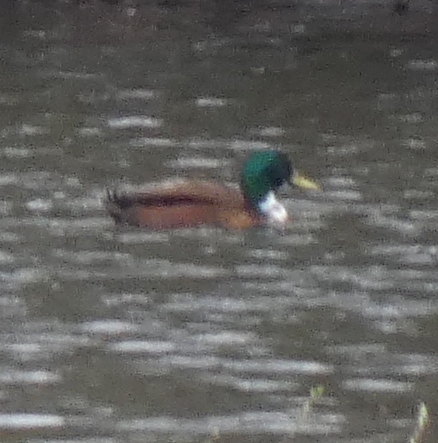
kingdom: Animalia
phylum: Chordata
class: Aves
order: Anseriformes
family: Anatidae
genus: Anas
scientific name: Anas platyrhynchos
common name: Mallard
